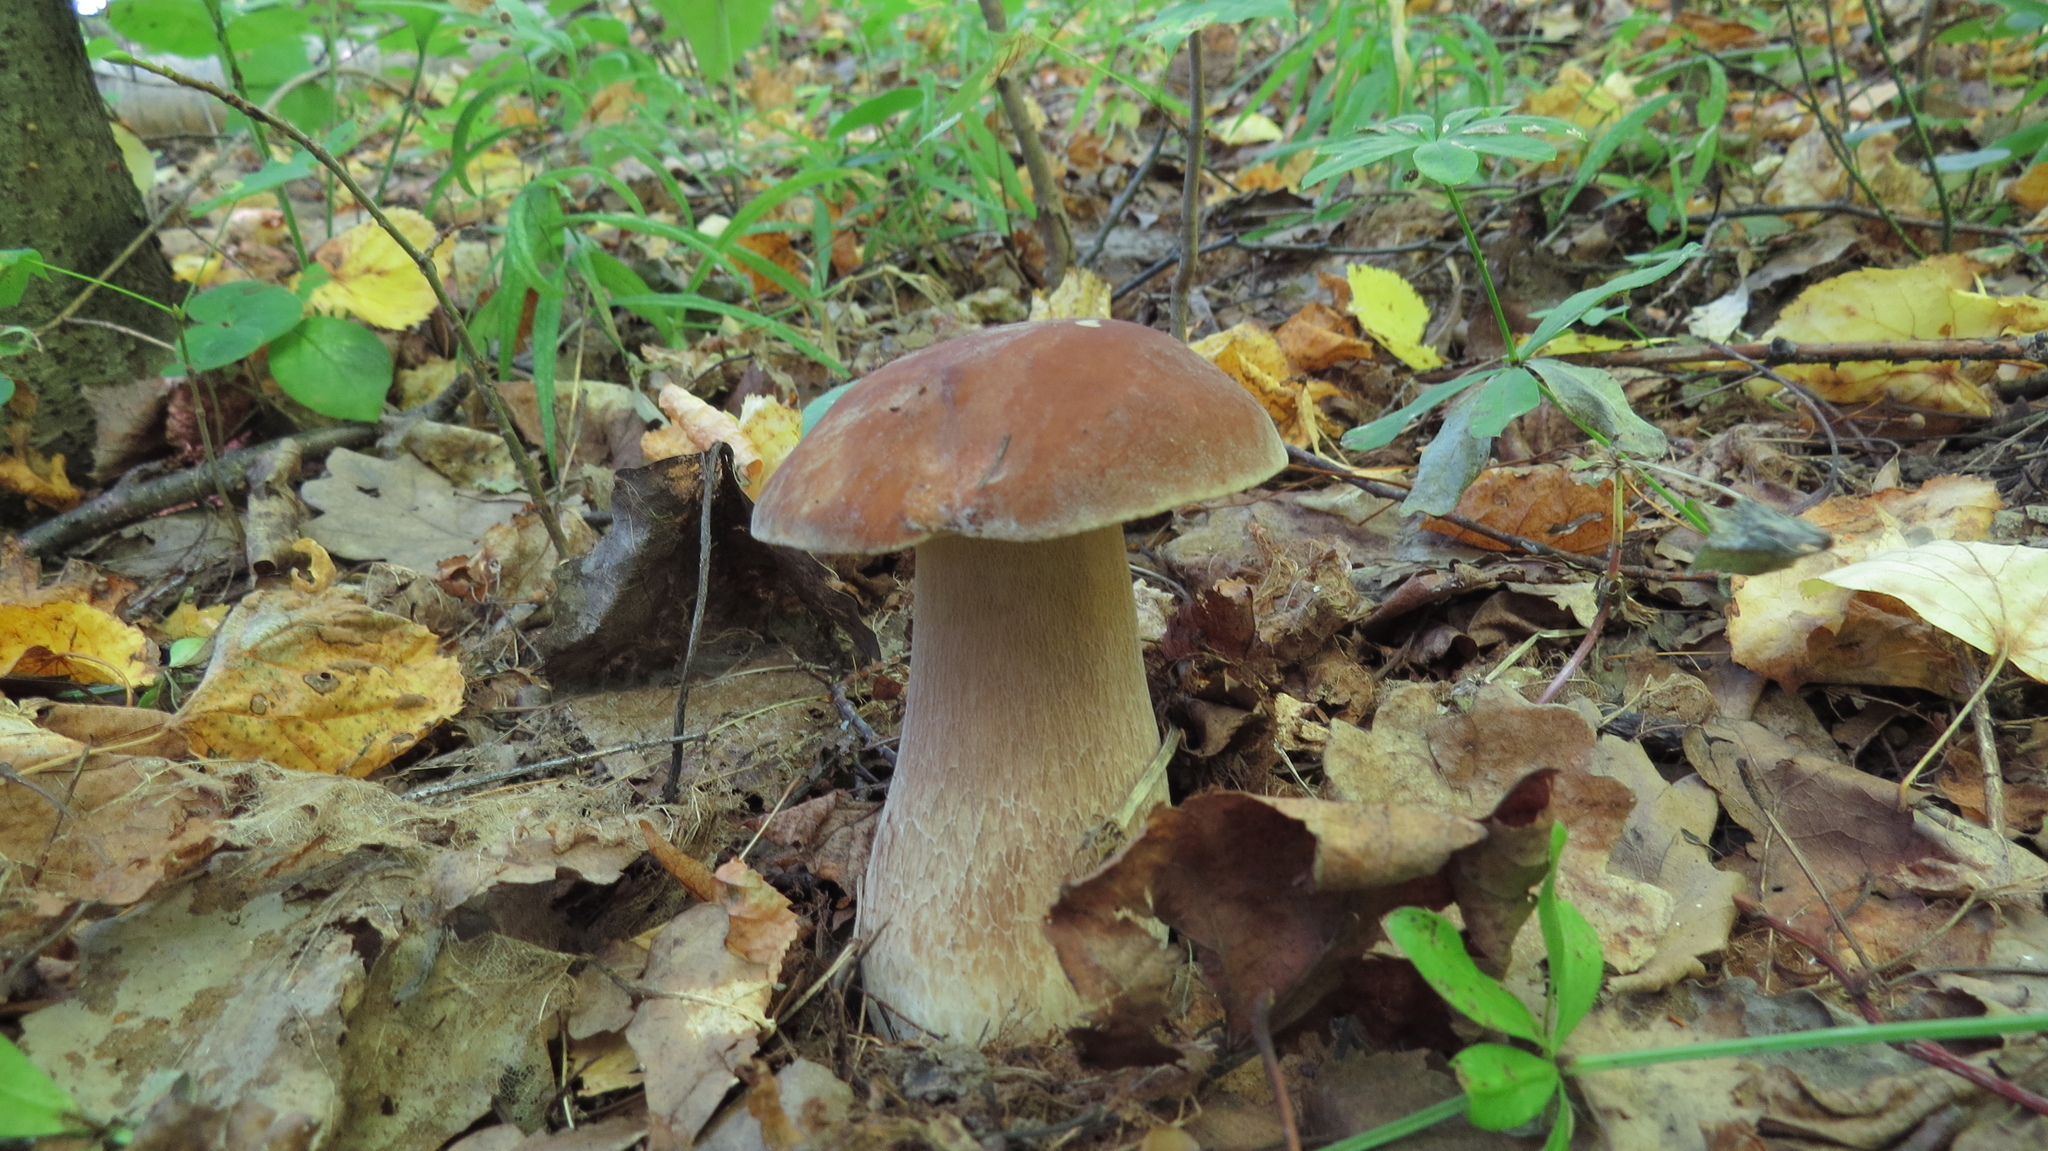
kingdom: Fungi
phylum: Basidiomycota
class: Agaricomycetes
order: Boletales
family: Boletaceae
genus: Boletus
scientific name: Boletus reticulatus
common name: Summer bolete
